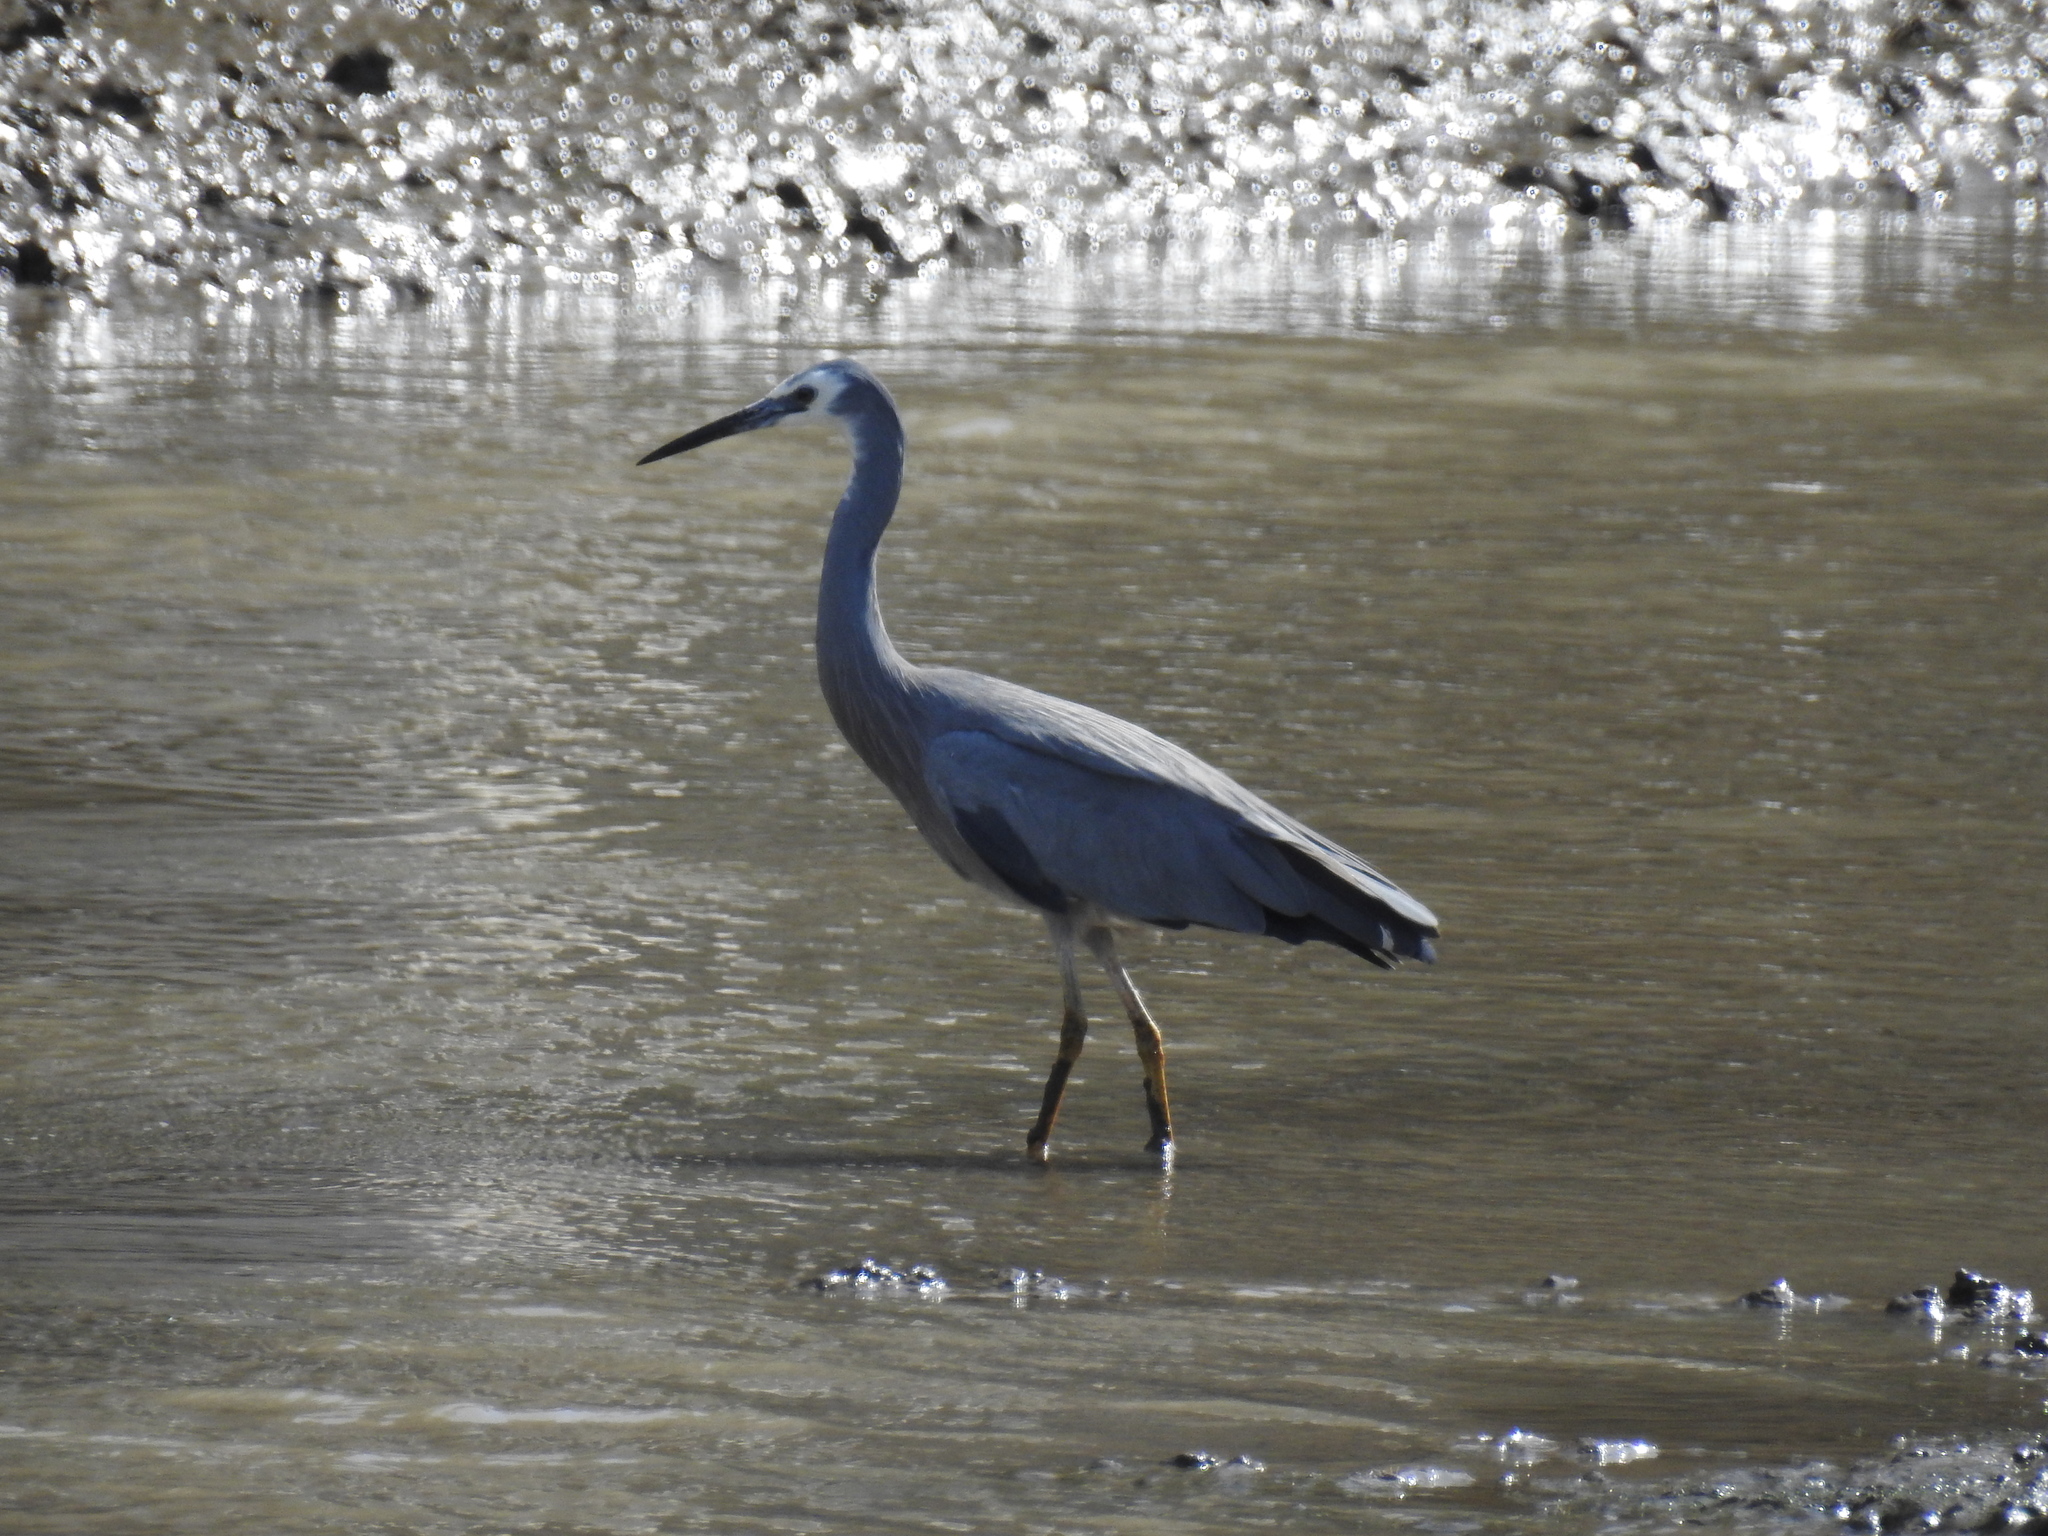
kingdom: Animalia
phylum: Chordata
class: Aves
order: Pelecaniformes
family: Ardeidae
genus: Egretta
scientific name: Egretta novaehollandiae
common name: White-faced heron
